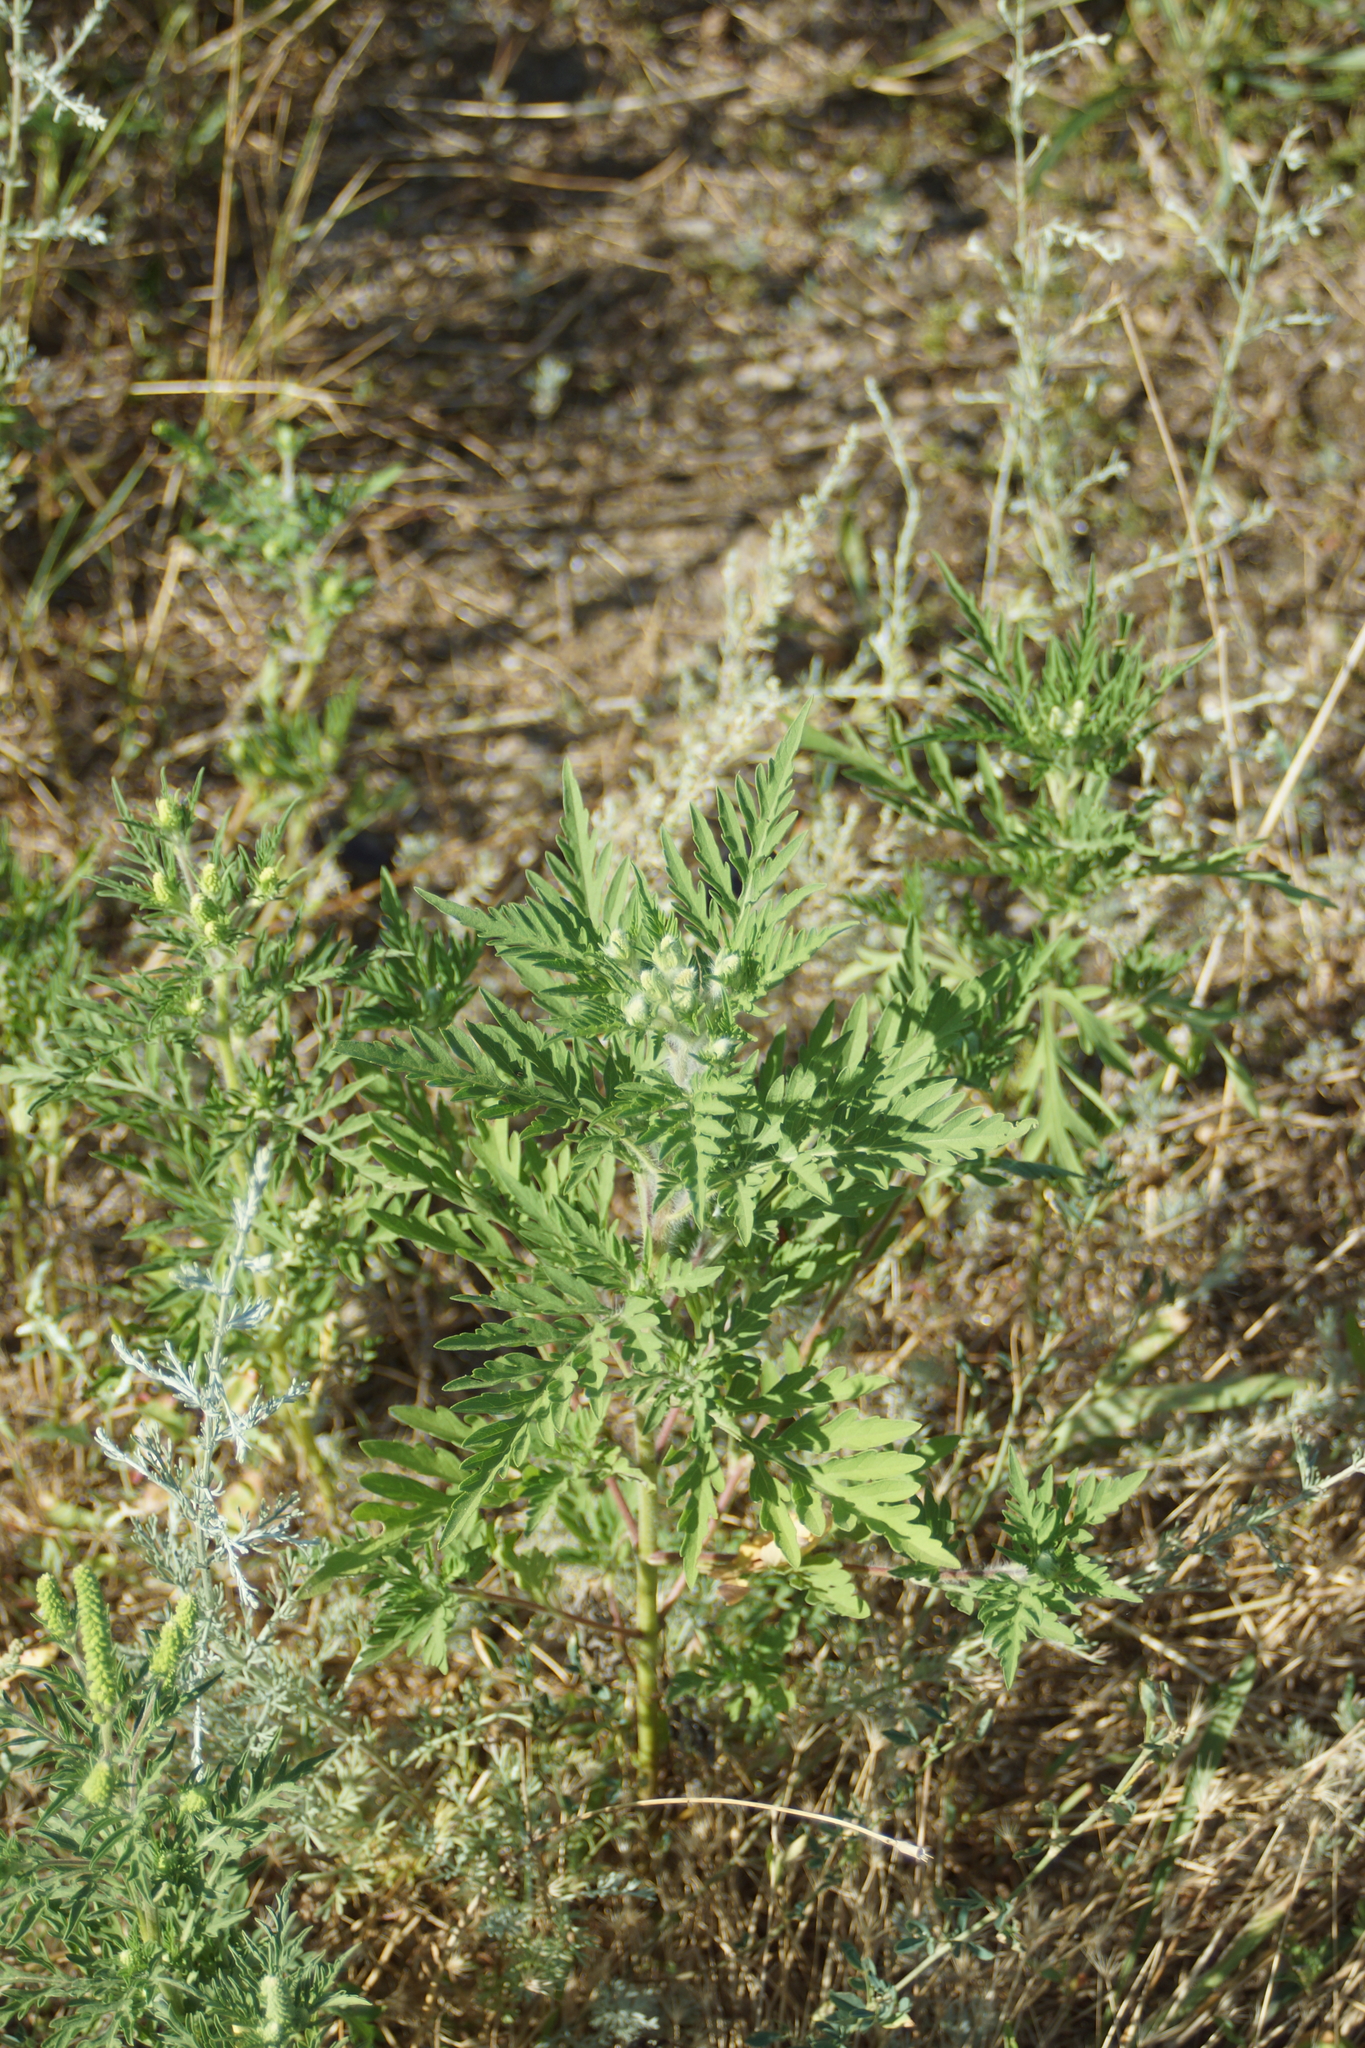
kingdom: Plantae
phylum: Tracheophyta
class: Magnoliopsida
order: Asterales
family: Asteraceae
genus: Ambrosia
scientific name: Ambrosia artemisiifolia
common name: Annual ragweed
